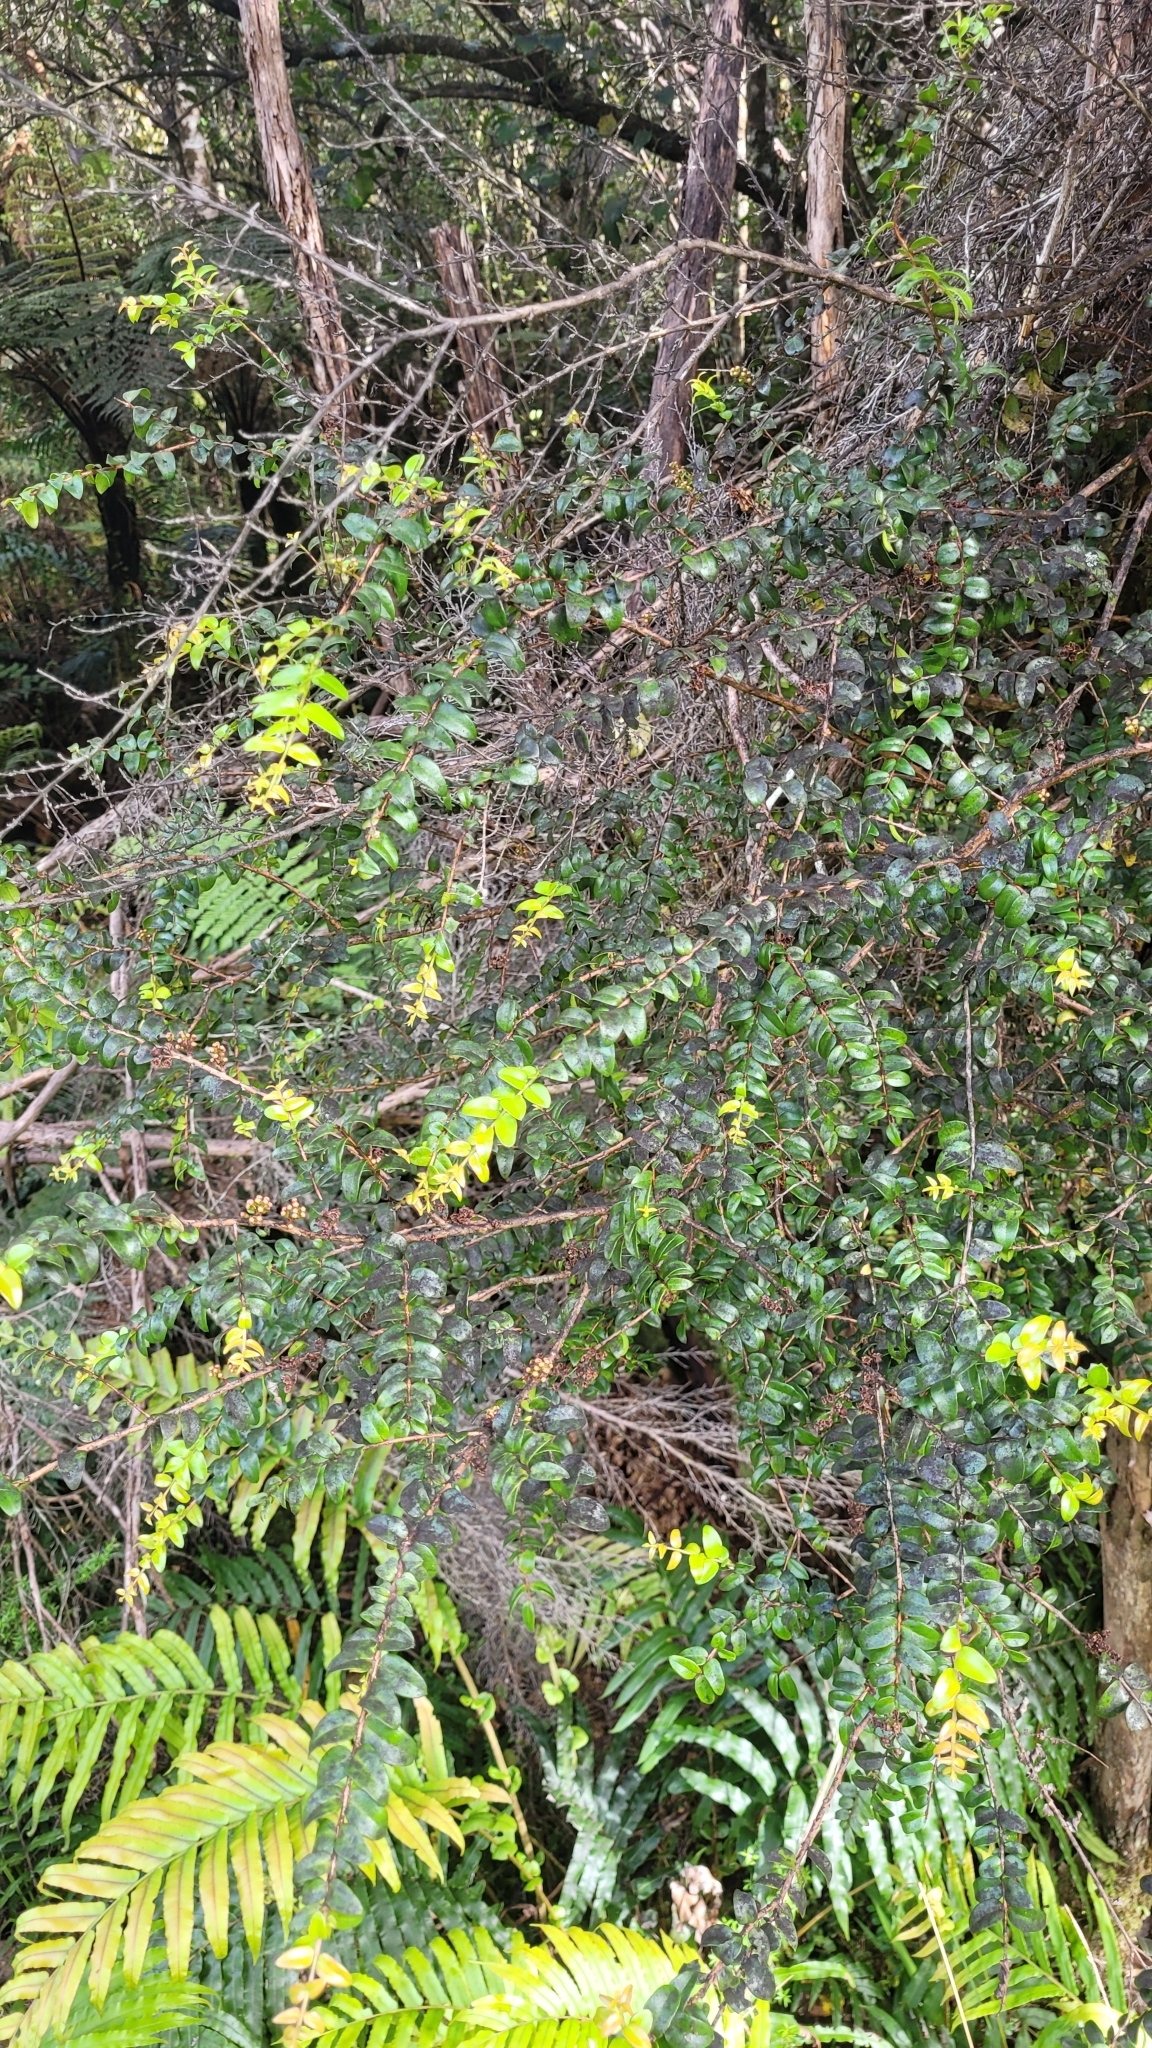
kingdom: Plantae
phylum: Tracheophyta
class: Magnoliopsida
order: Myrtales
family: Myrtaceae
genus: Metrosideros
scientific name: Metrosideros diffusa
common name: Small ratavine
